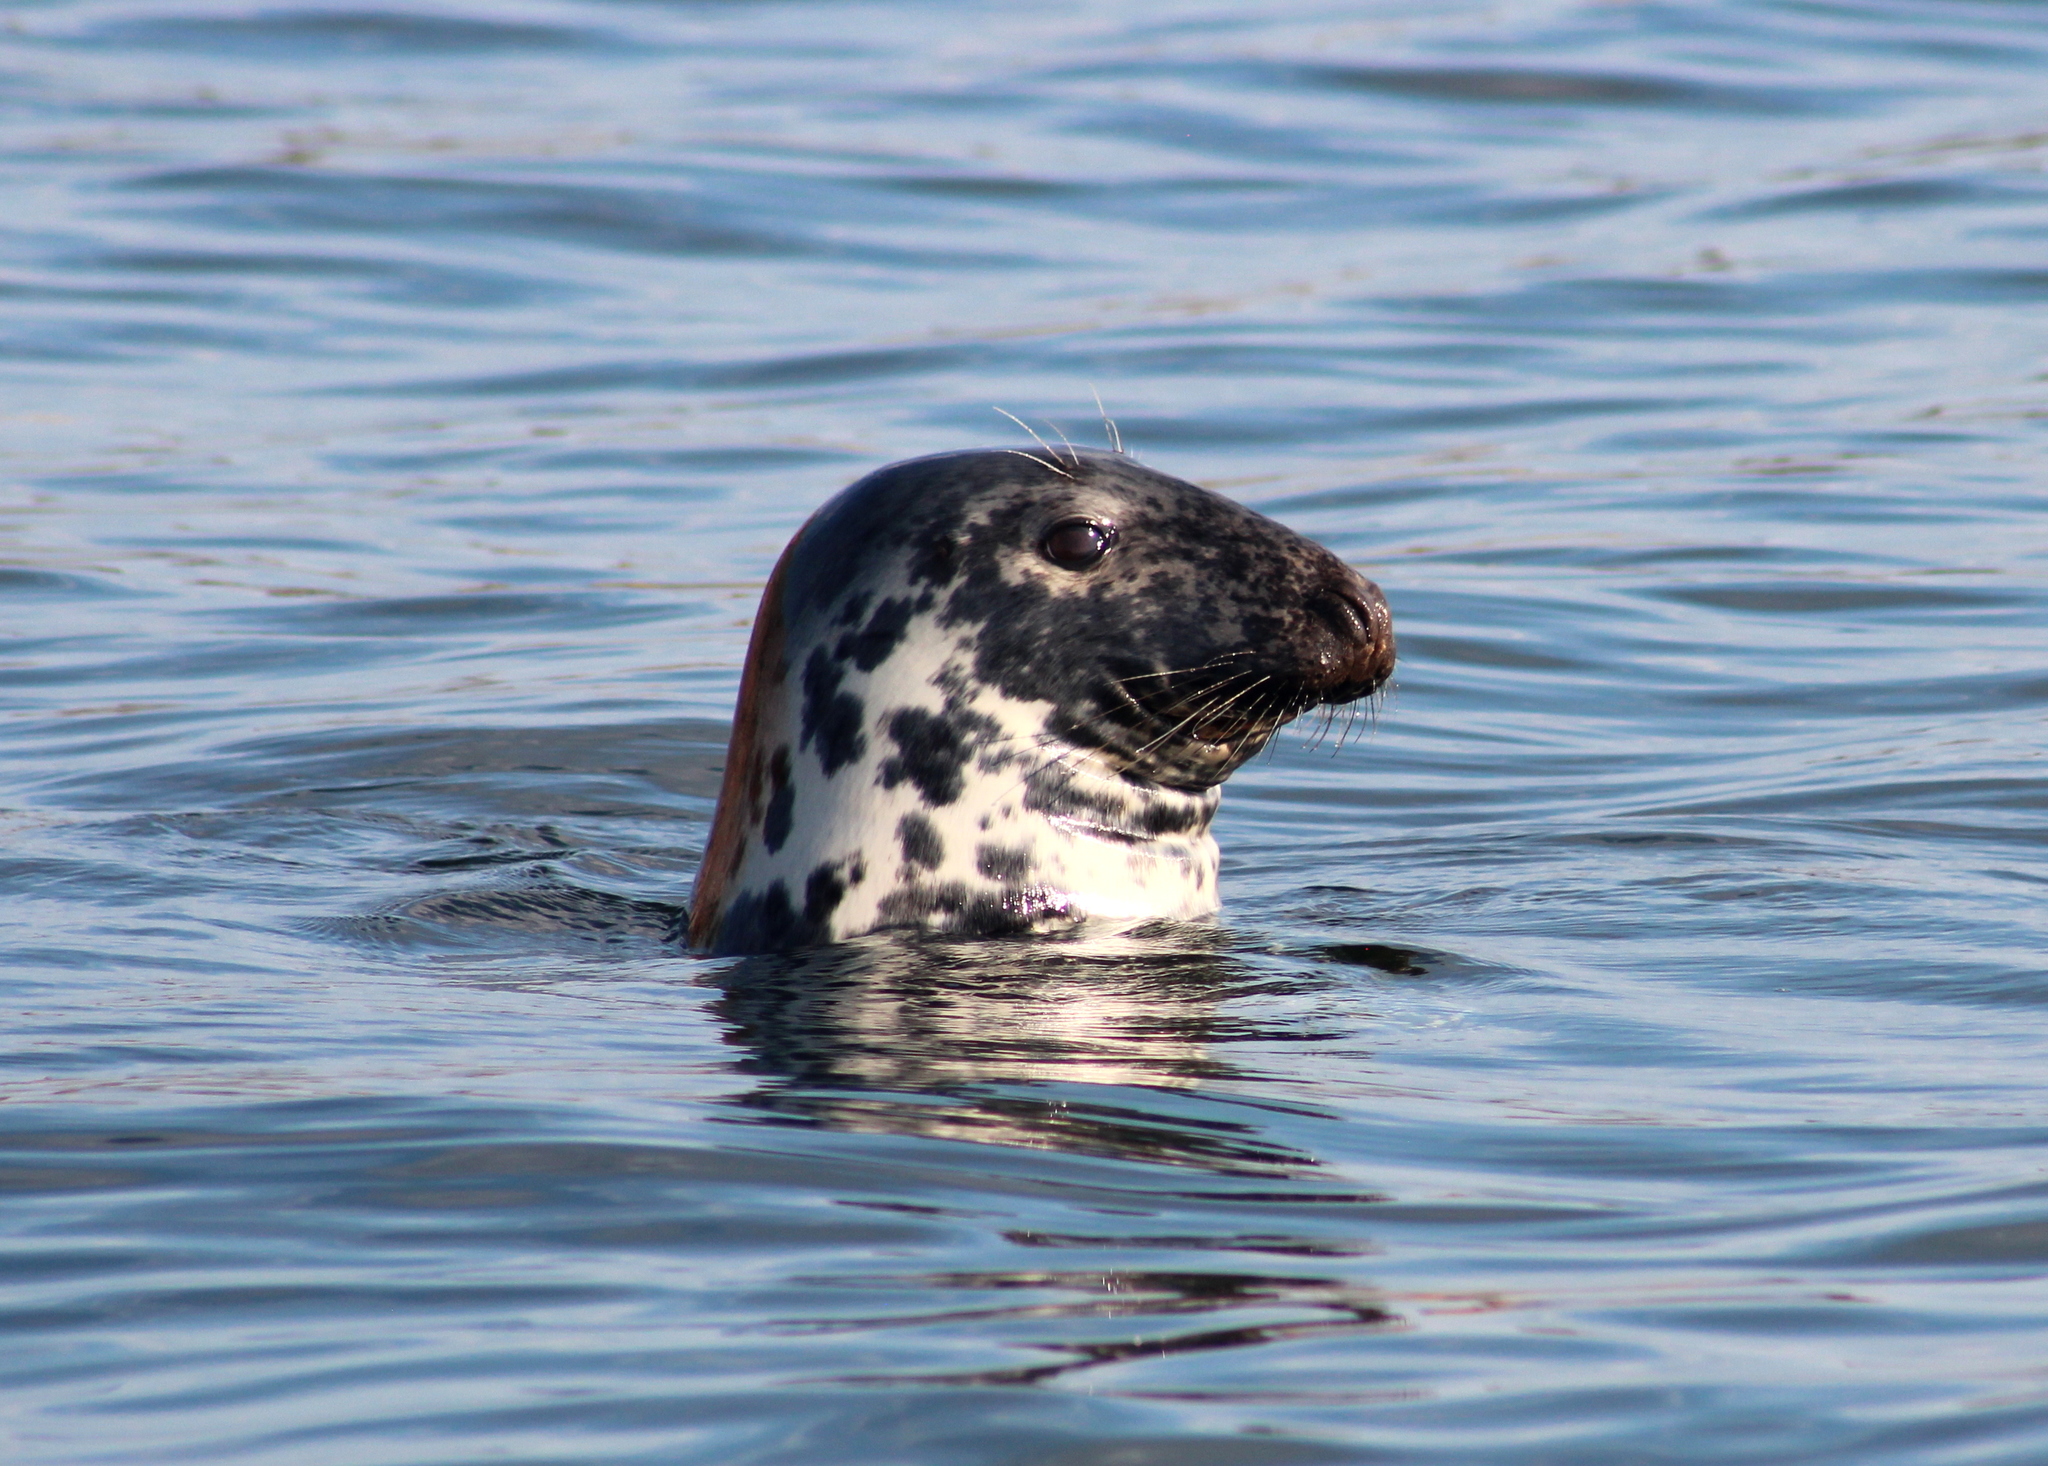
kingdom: Animalia
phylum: Chordata
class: Mammalia
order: Carnivora
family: Phocidae
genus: Halichoerus
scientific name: Halichoerus grypus
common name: Grey seal
